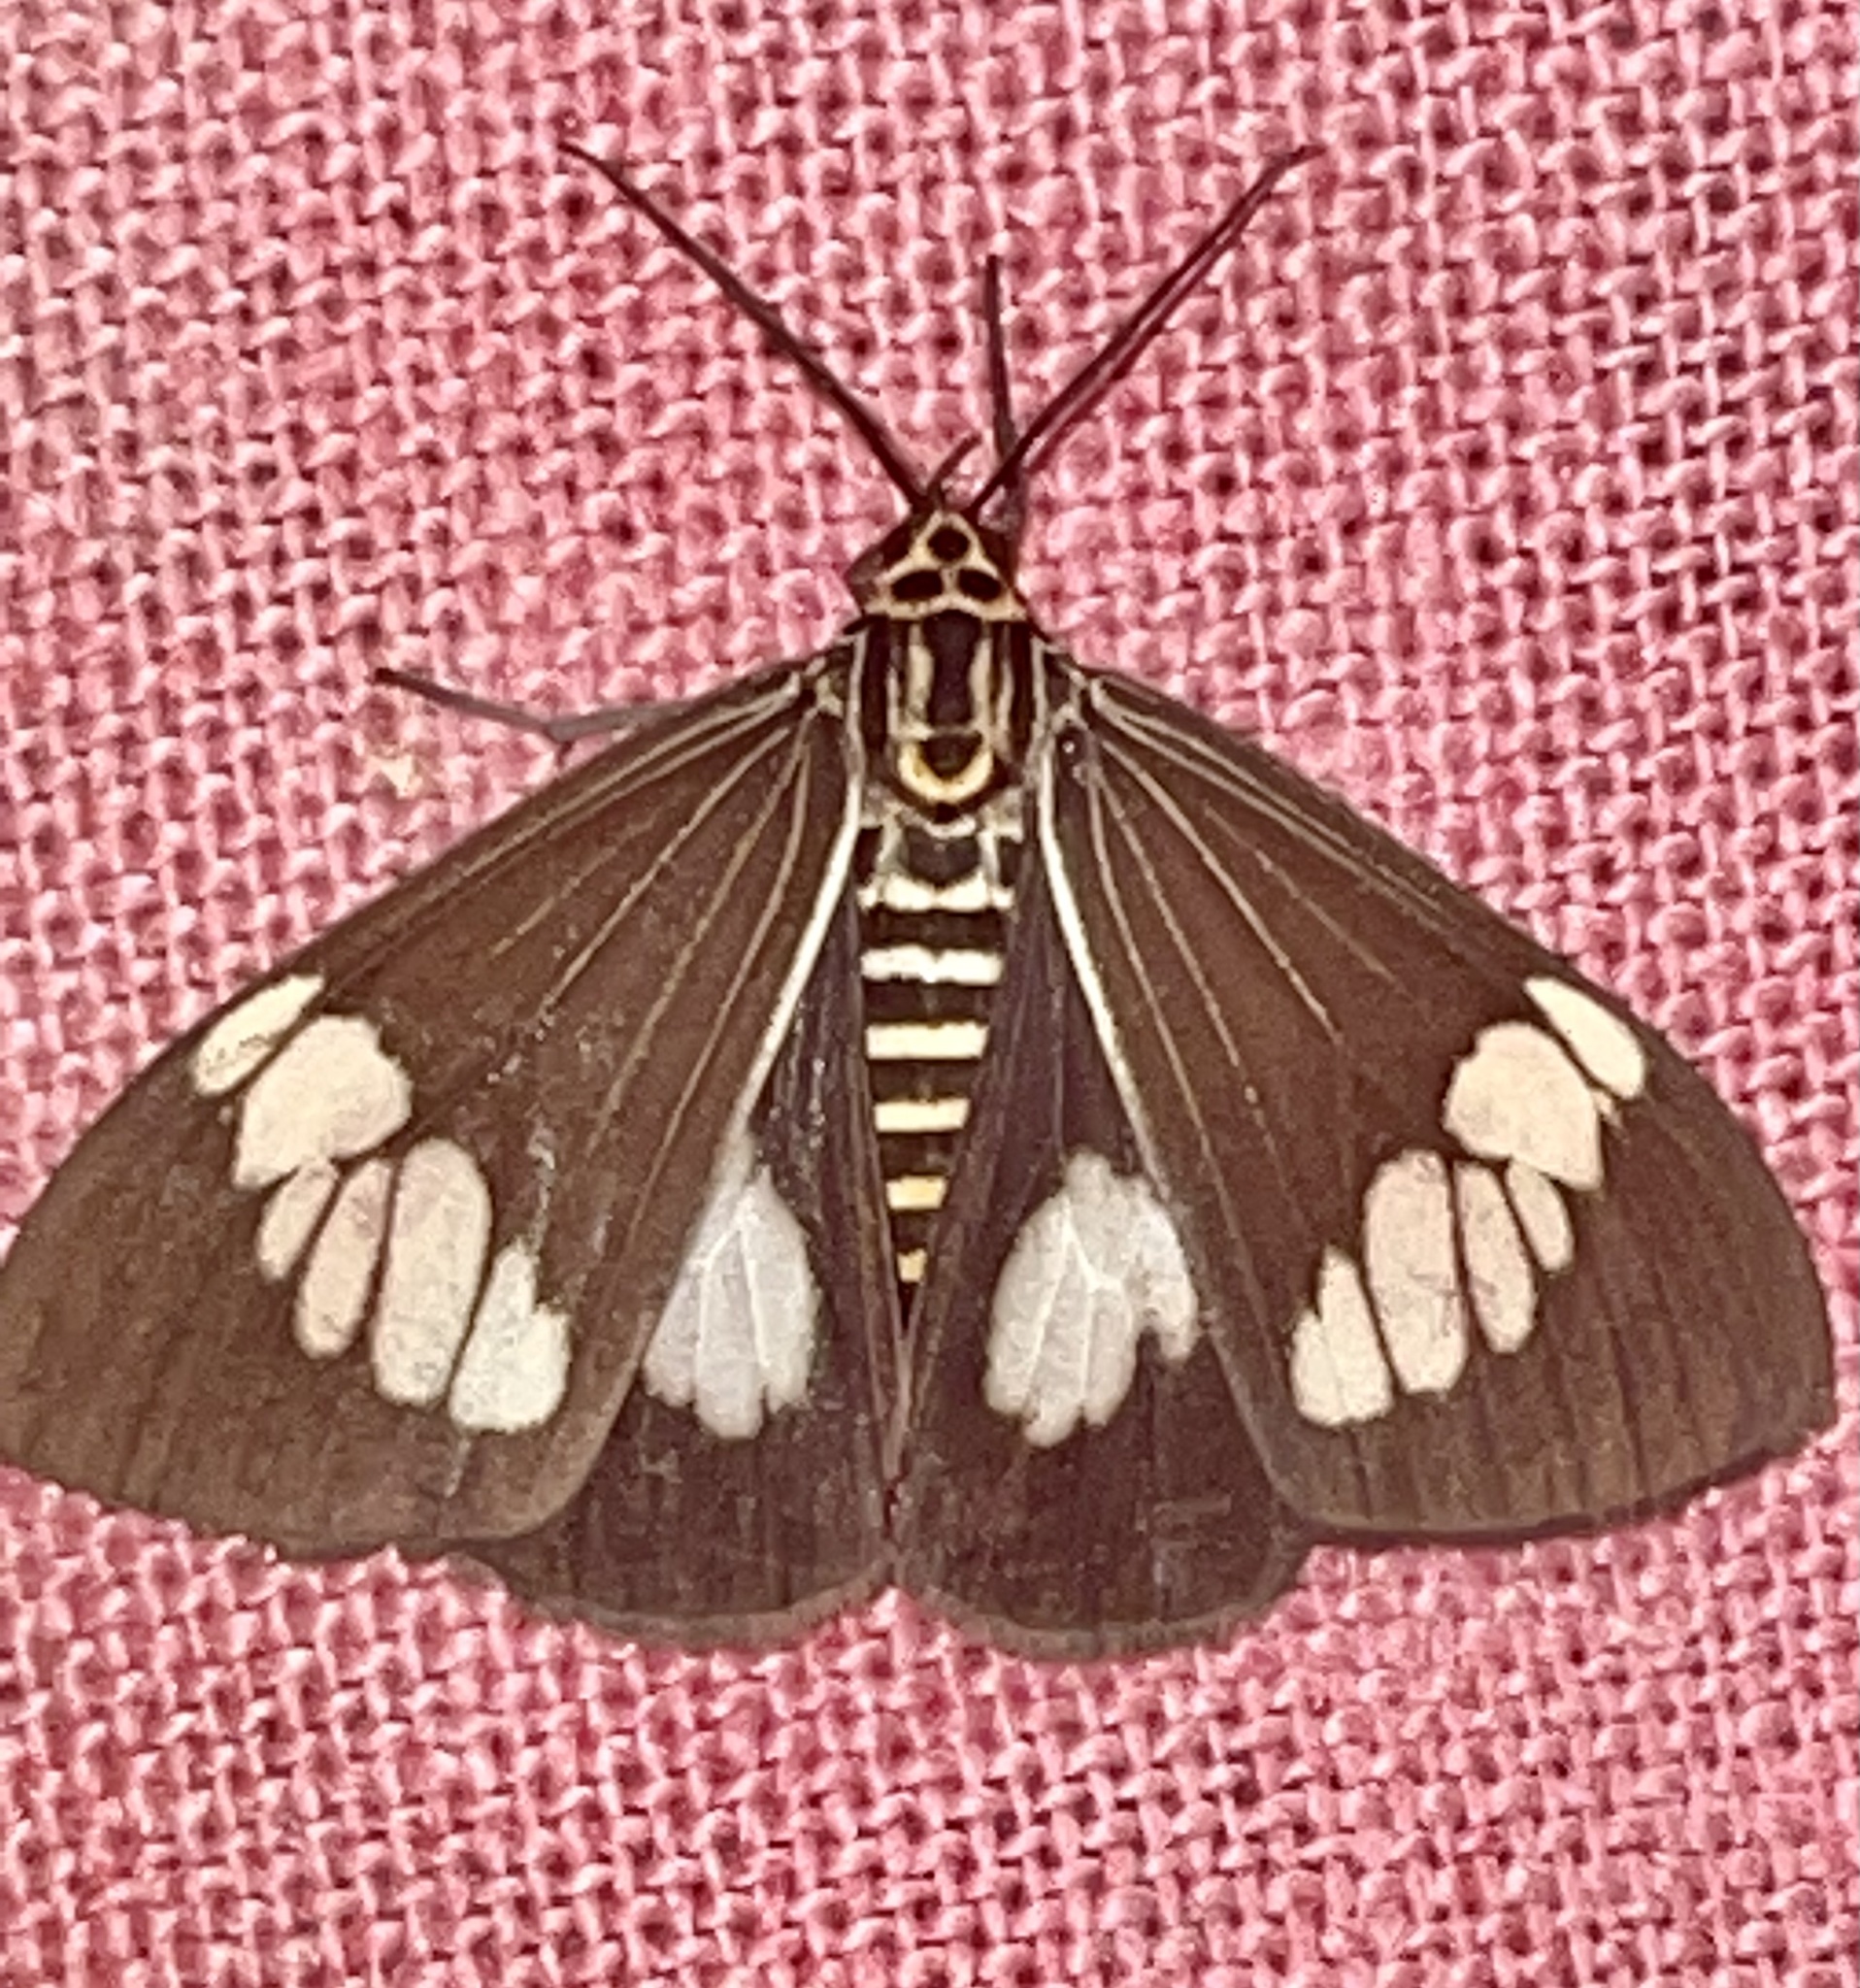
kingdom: Animalia
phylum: Arthropoda
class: Insecta
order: Lepidoptera
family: Erebidae
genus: Nyctemera
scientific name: Nyctemera baulus
